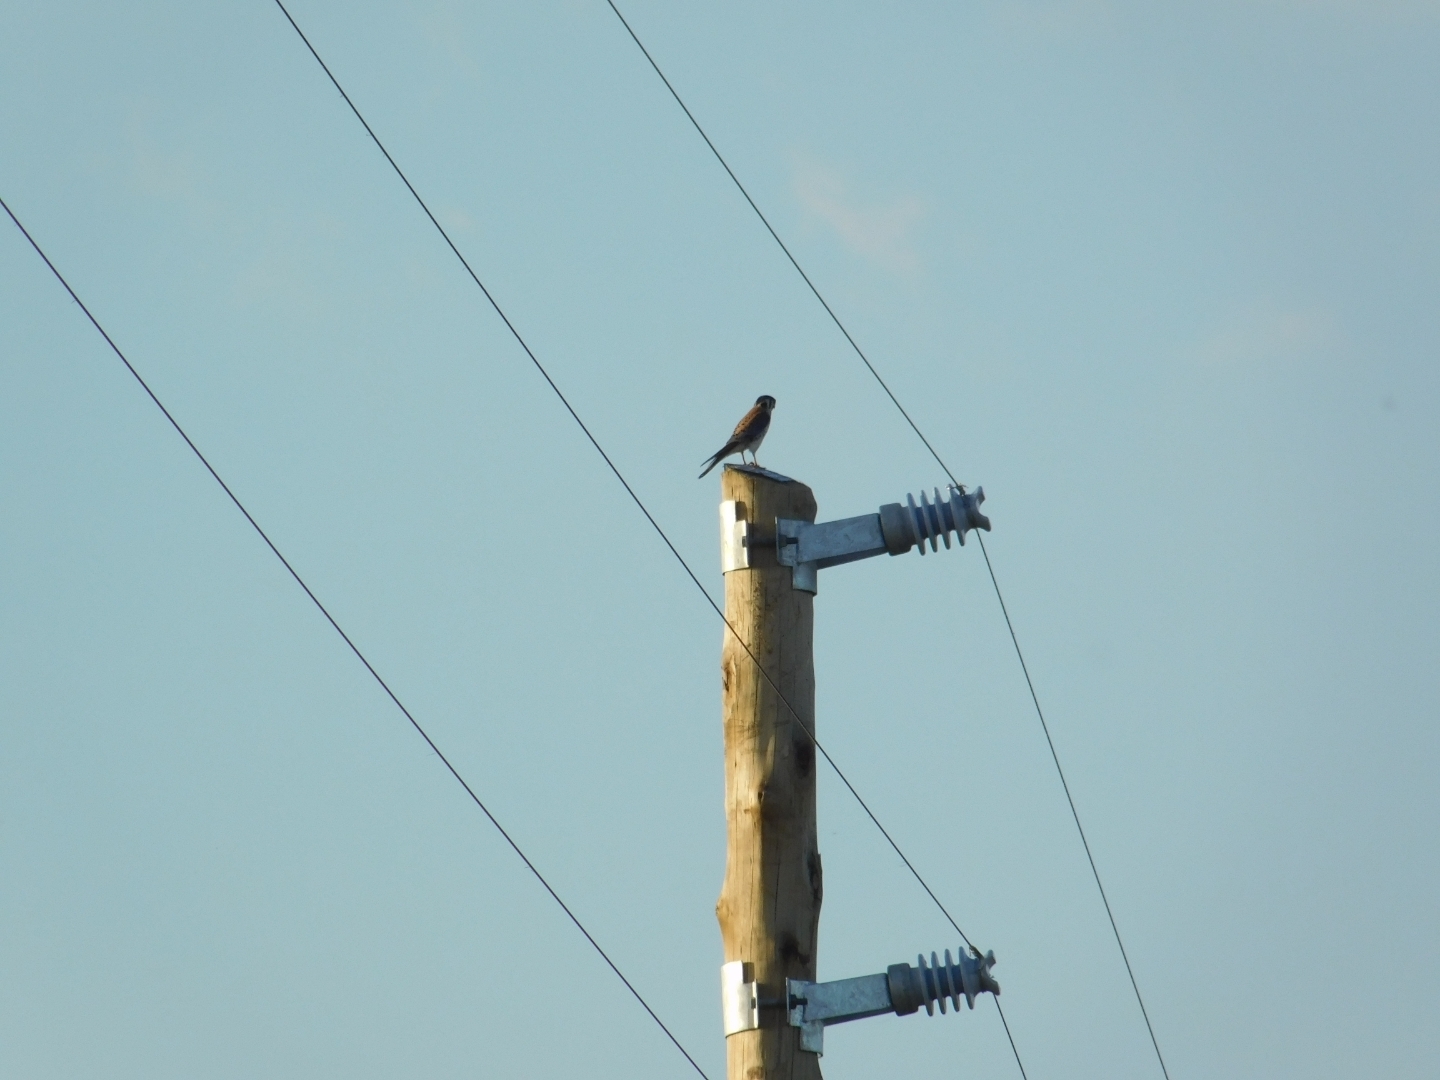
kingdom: Animalia
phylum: Chordata
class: Aves
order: Falconiformes
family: Falconidae
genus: Falco
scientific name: Falco sparverius
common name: American kestrel
